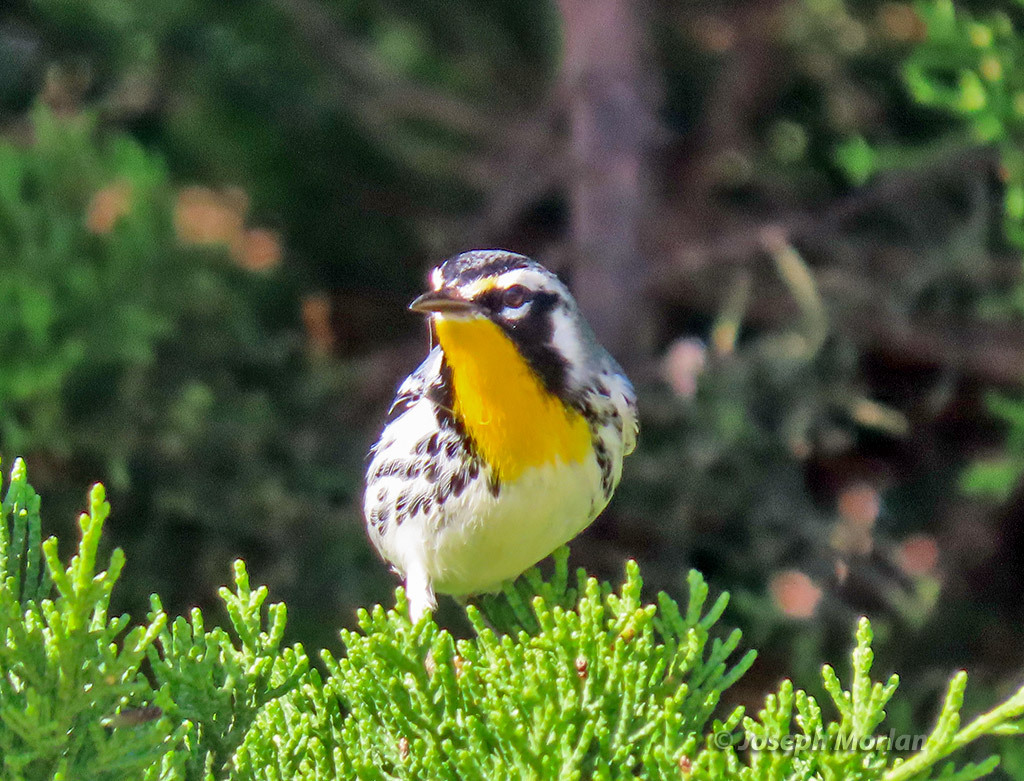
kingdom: Animalia
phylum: Chordata
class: Aves
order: Passeriformes
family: Parulidae
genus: Setophaga
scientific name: Setophaga dominica
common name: Yellow-throated warbler
